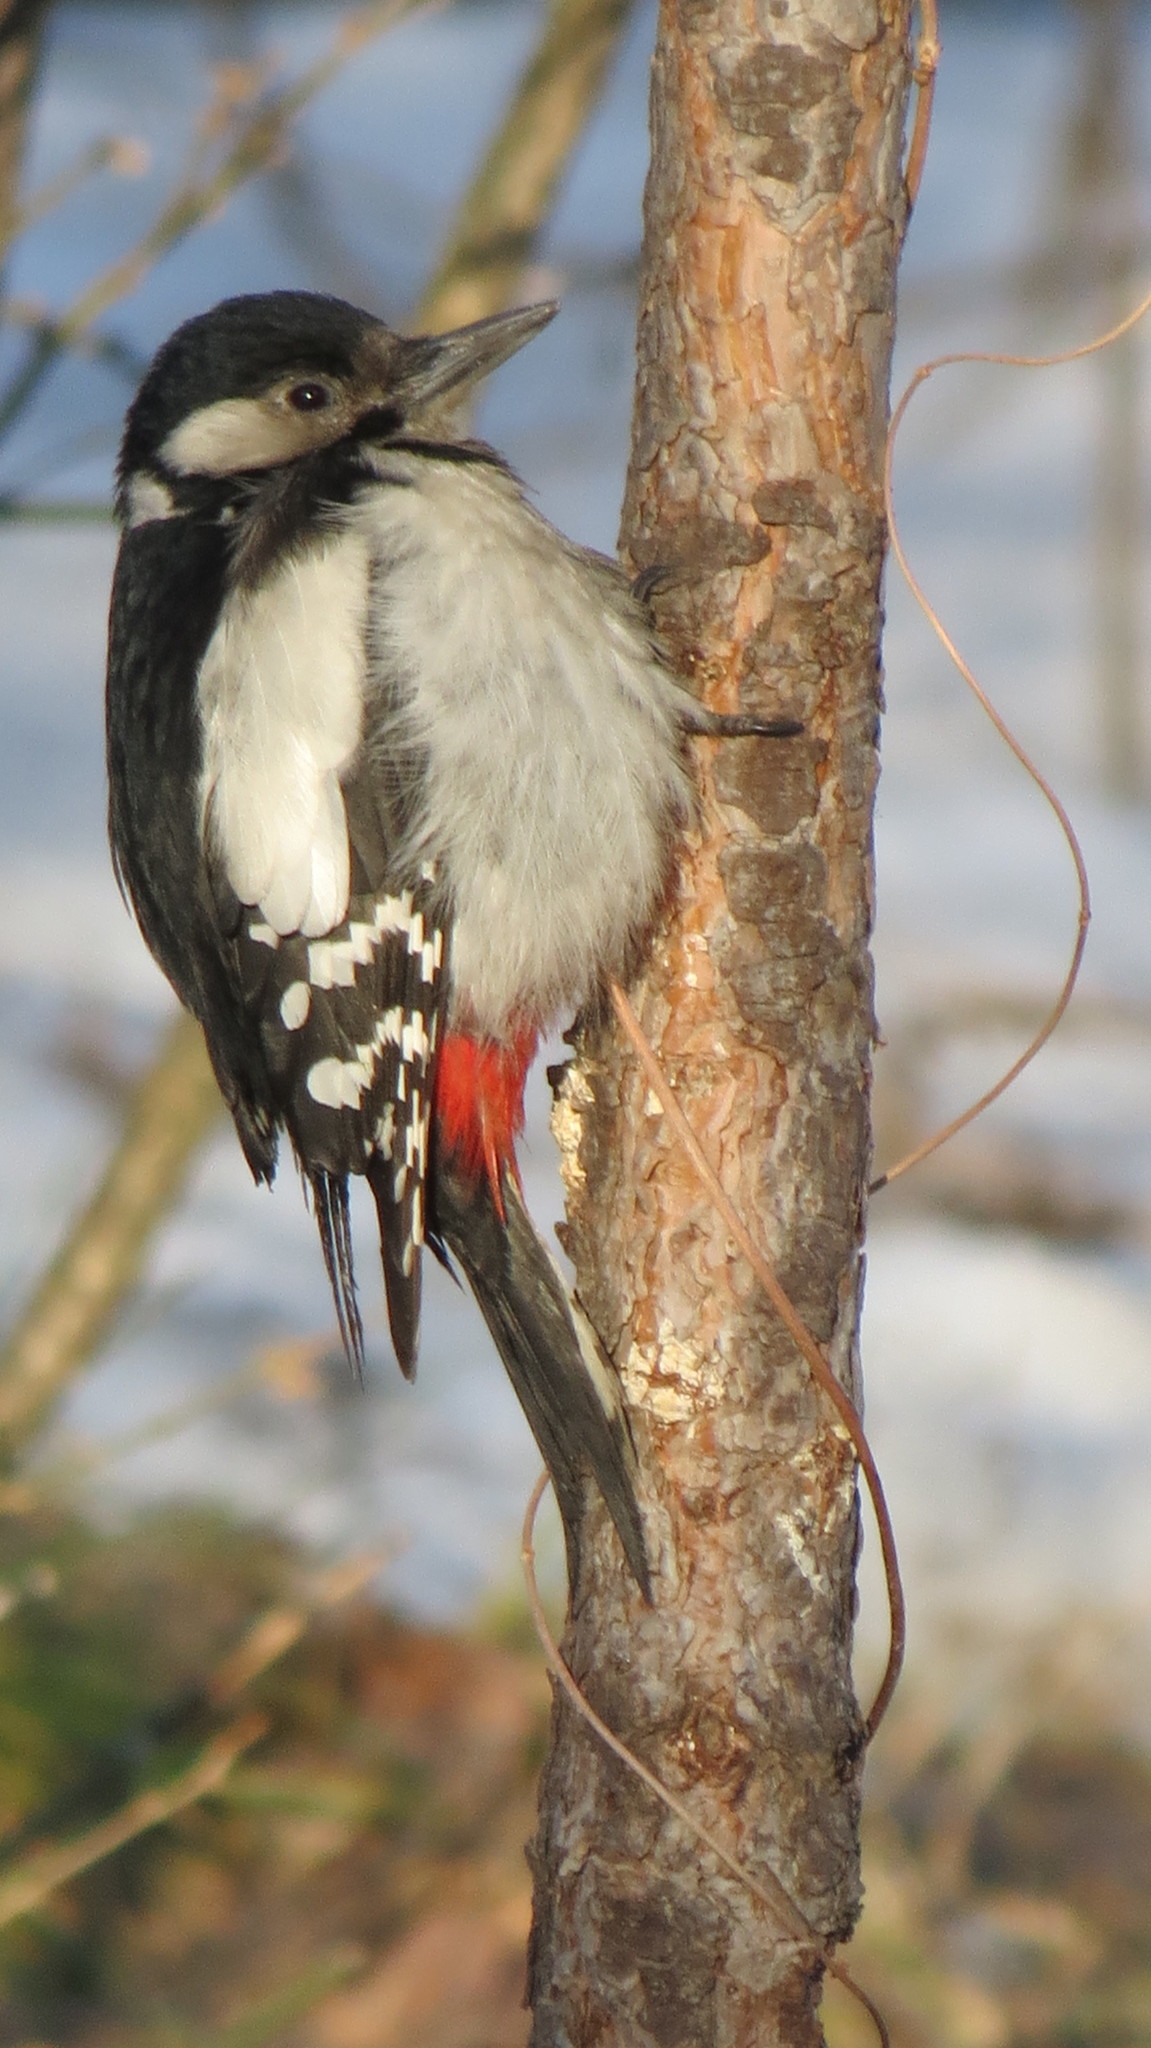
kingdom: Animalia
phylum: Chordata
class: Aves
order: Piciformes
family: Picidae
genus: Dendrocopos
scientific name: Dendrocopos major
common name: Great spotted woodpecker
